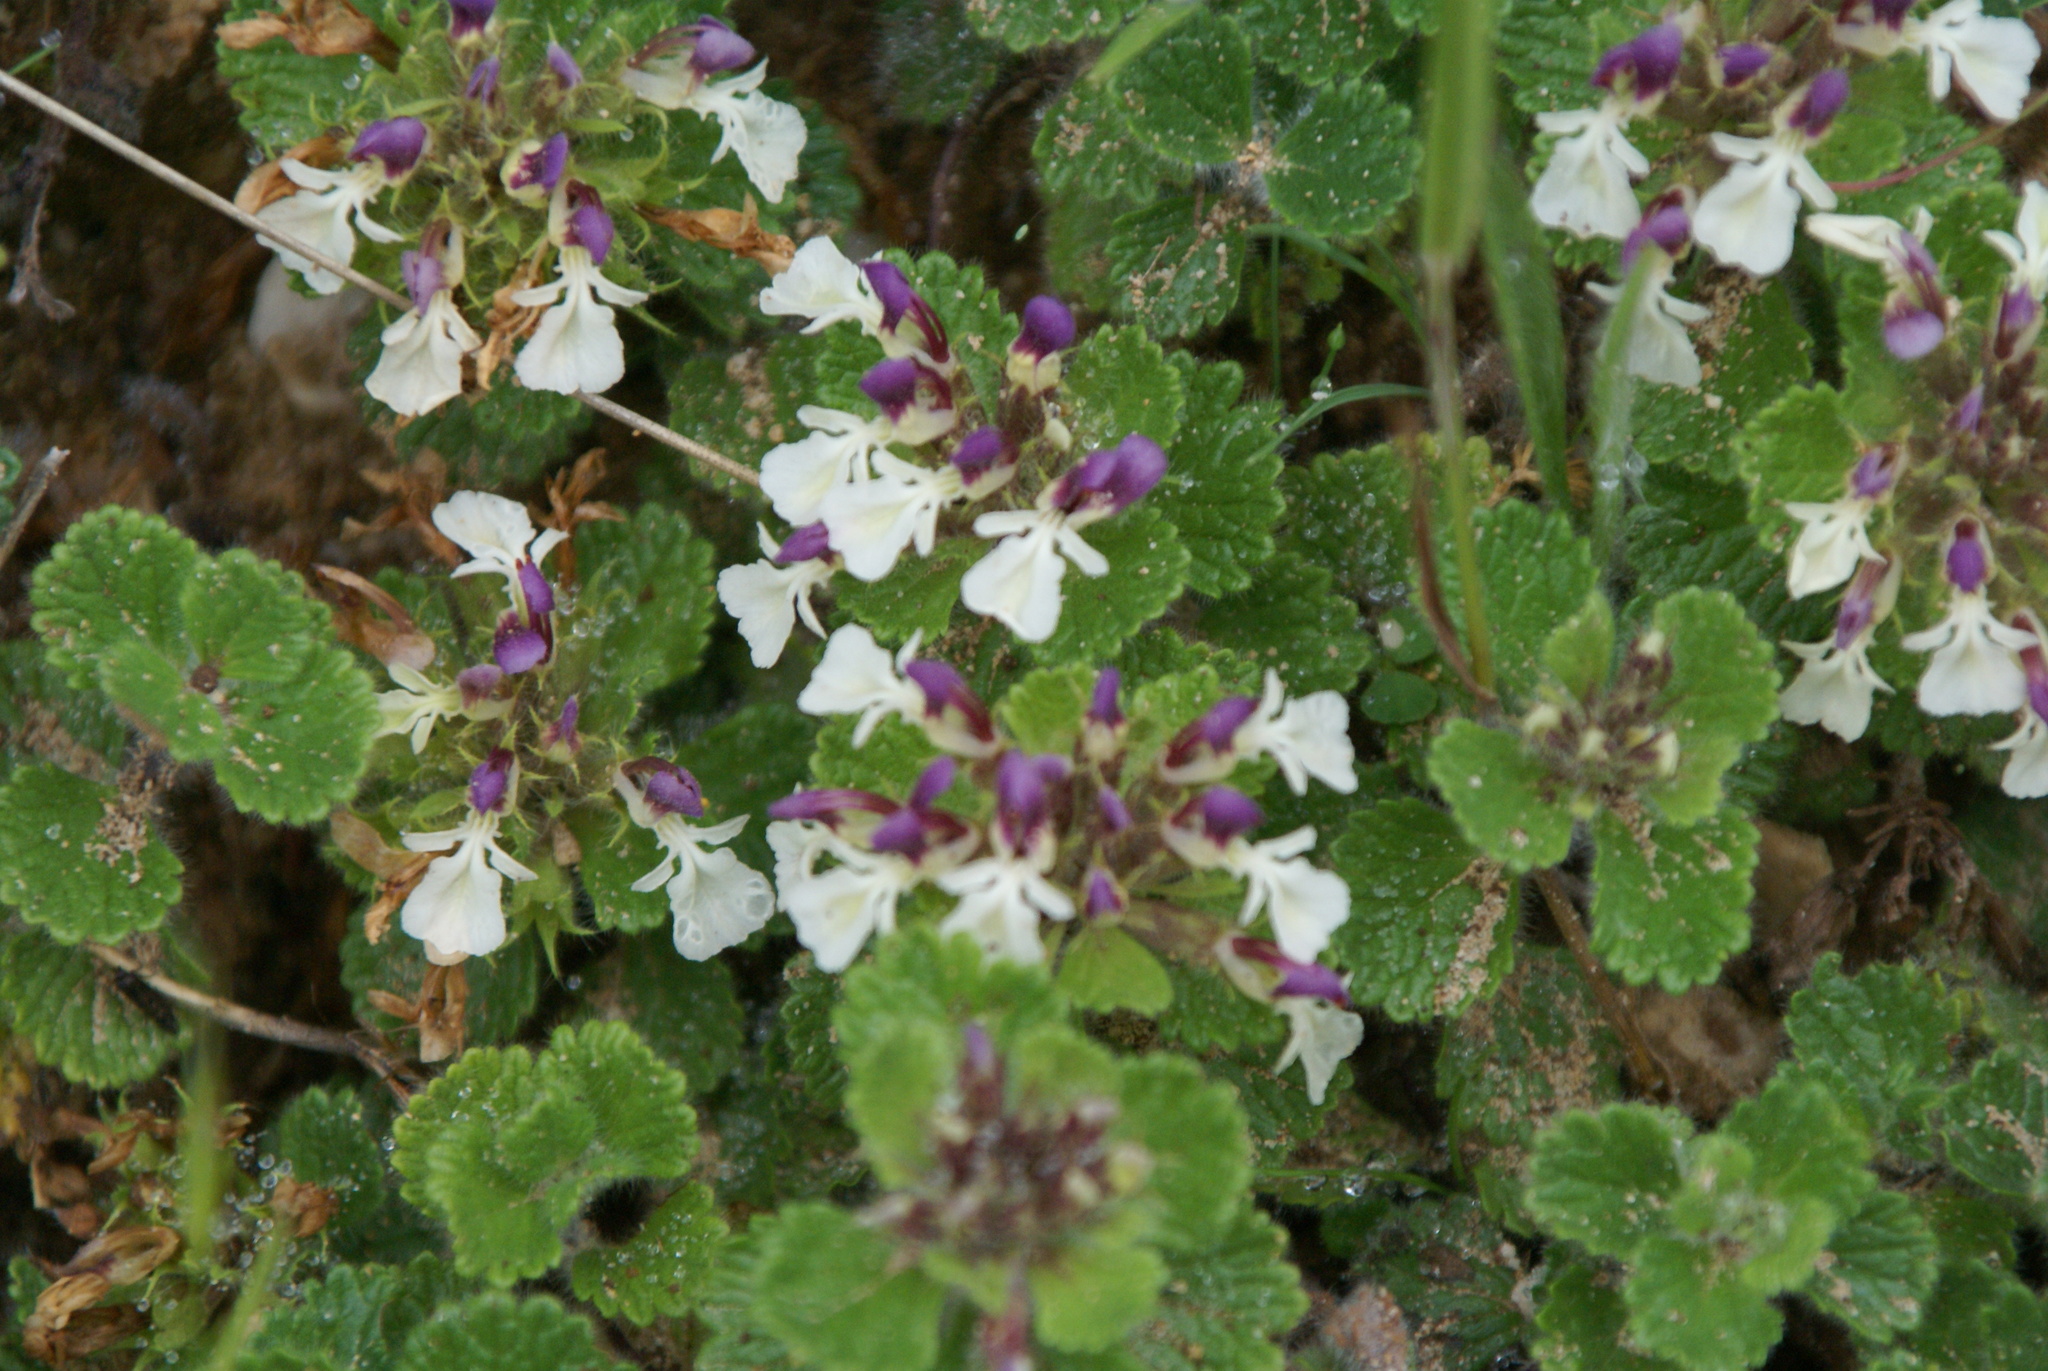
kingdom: Plantae
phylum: Tracheophyta
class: Magnoliopsida
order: Lamiales
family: Lamiaceae
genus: Teucrium
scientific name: Teucrium pyrenaicum
